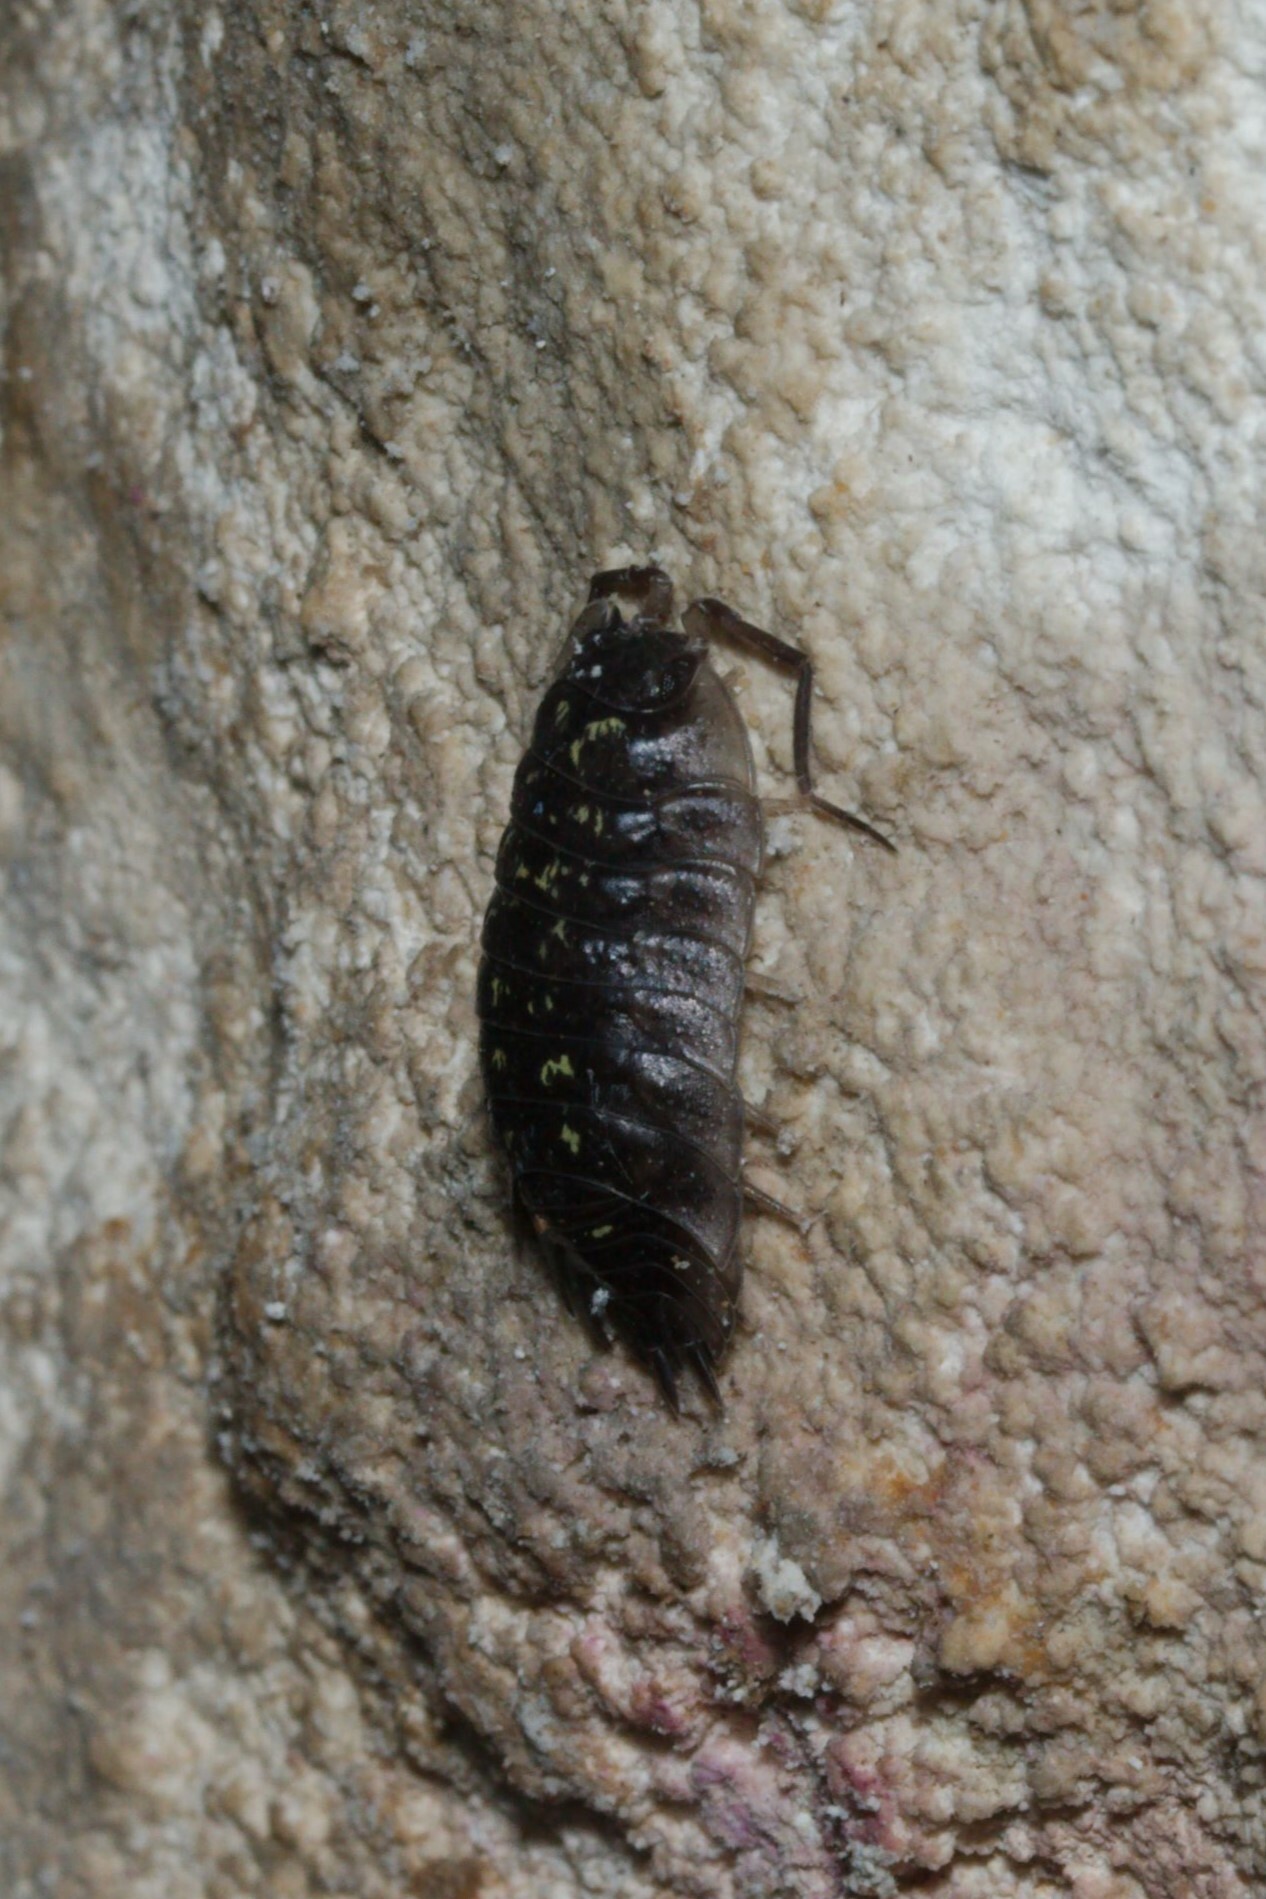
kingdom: Animalia
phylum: Arthropoda
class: Malacostraca
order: Isopoda
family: Oniscidae
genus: Oniscus
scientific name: Oniscus asellus
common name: Common shiny woodlouse
